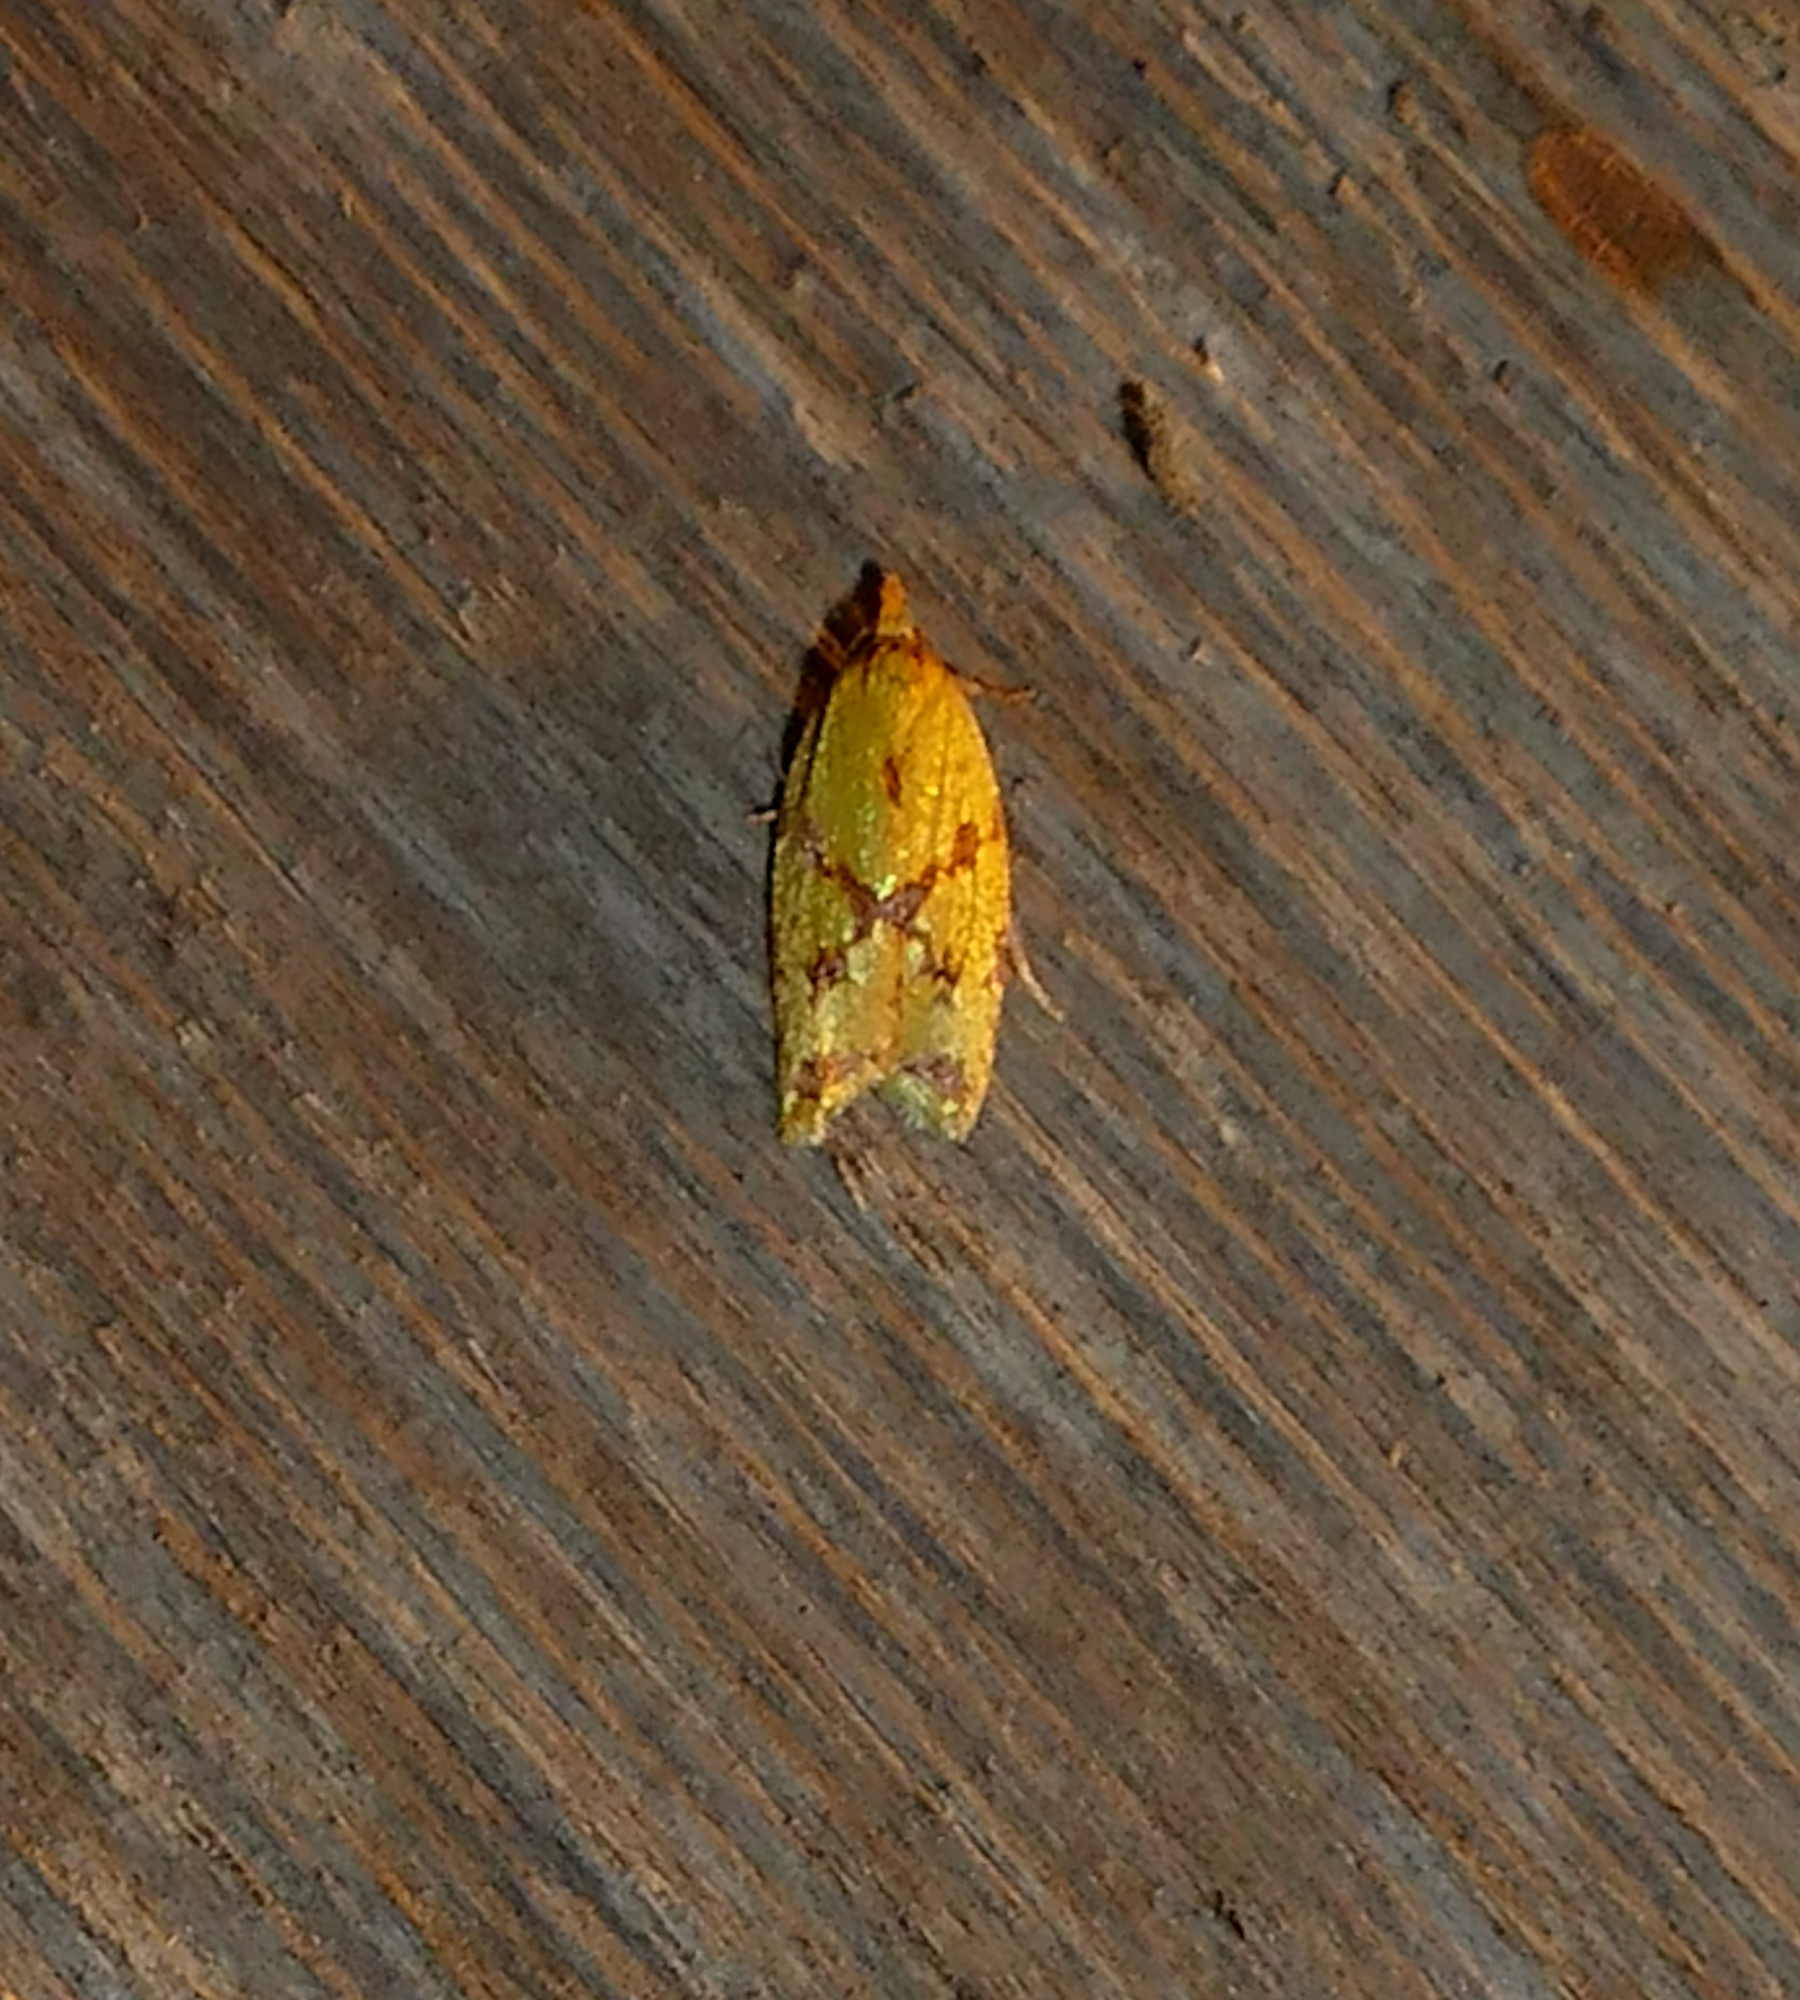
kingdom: Animalia
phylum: Arthropoda
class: Insecta
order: Lepidoptera
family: Tortricidae
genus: Sparganothis
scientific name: Sparganothis sulfureana
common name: Sparganothis fruitworm moth
